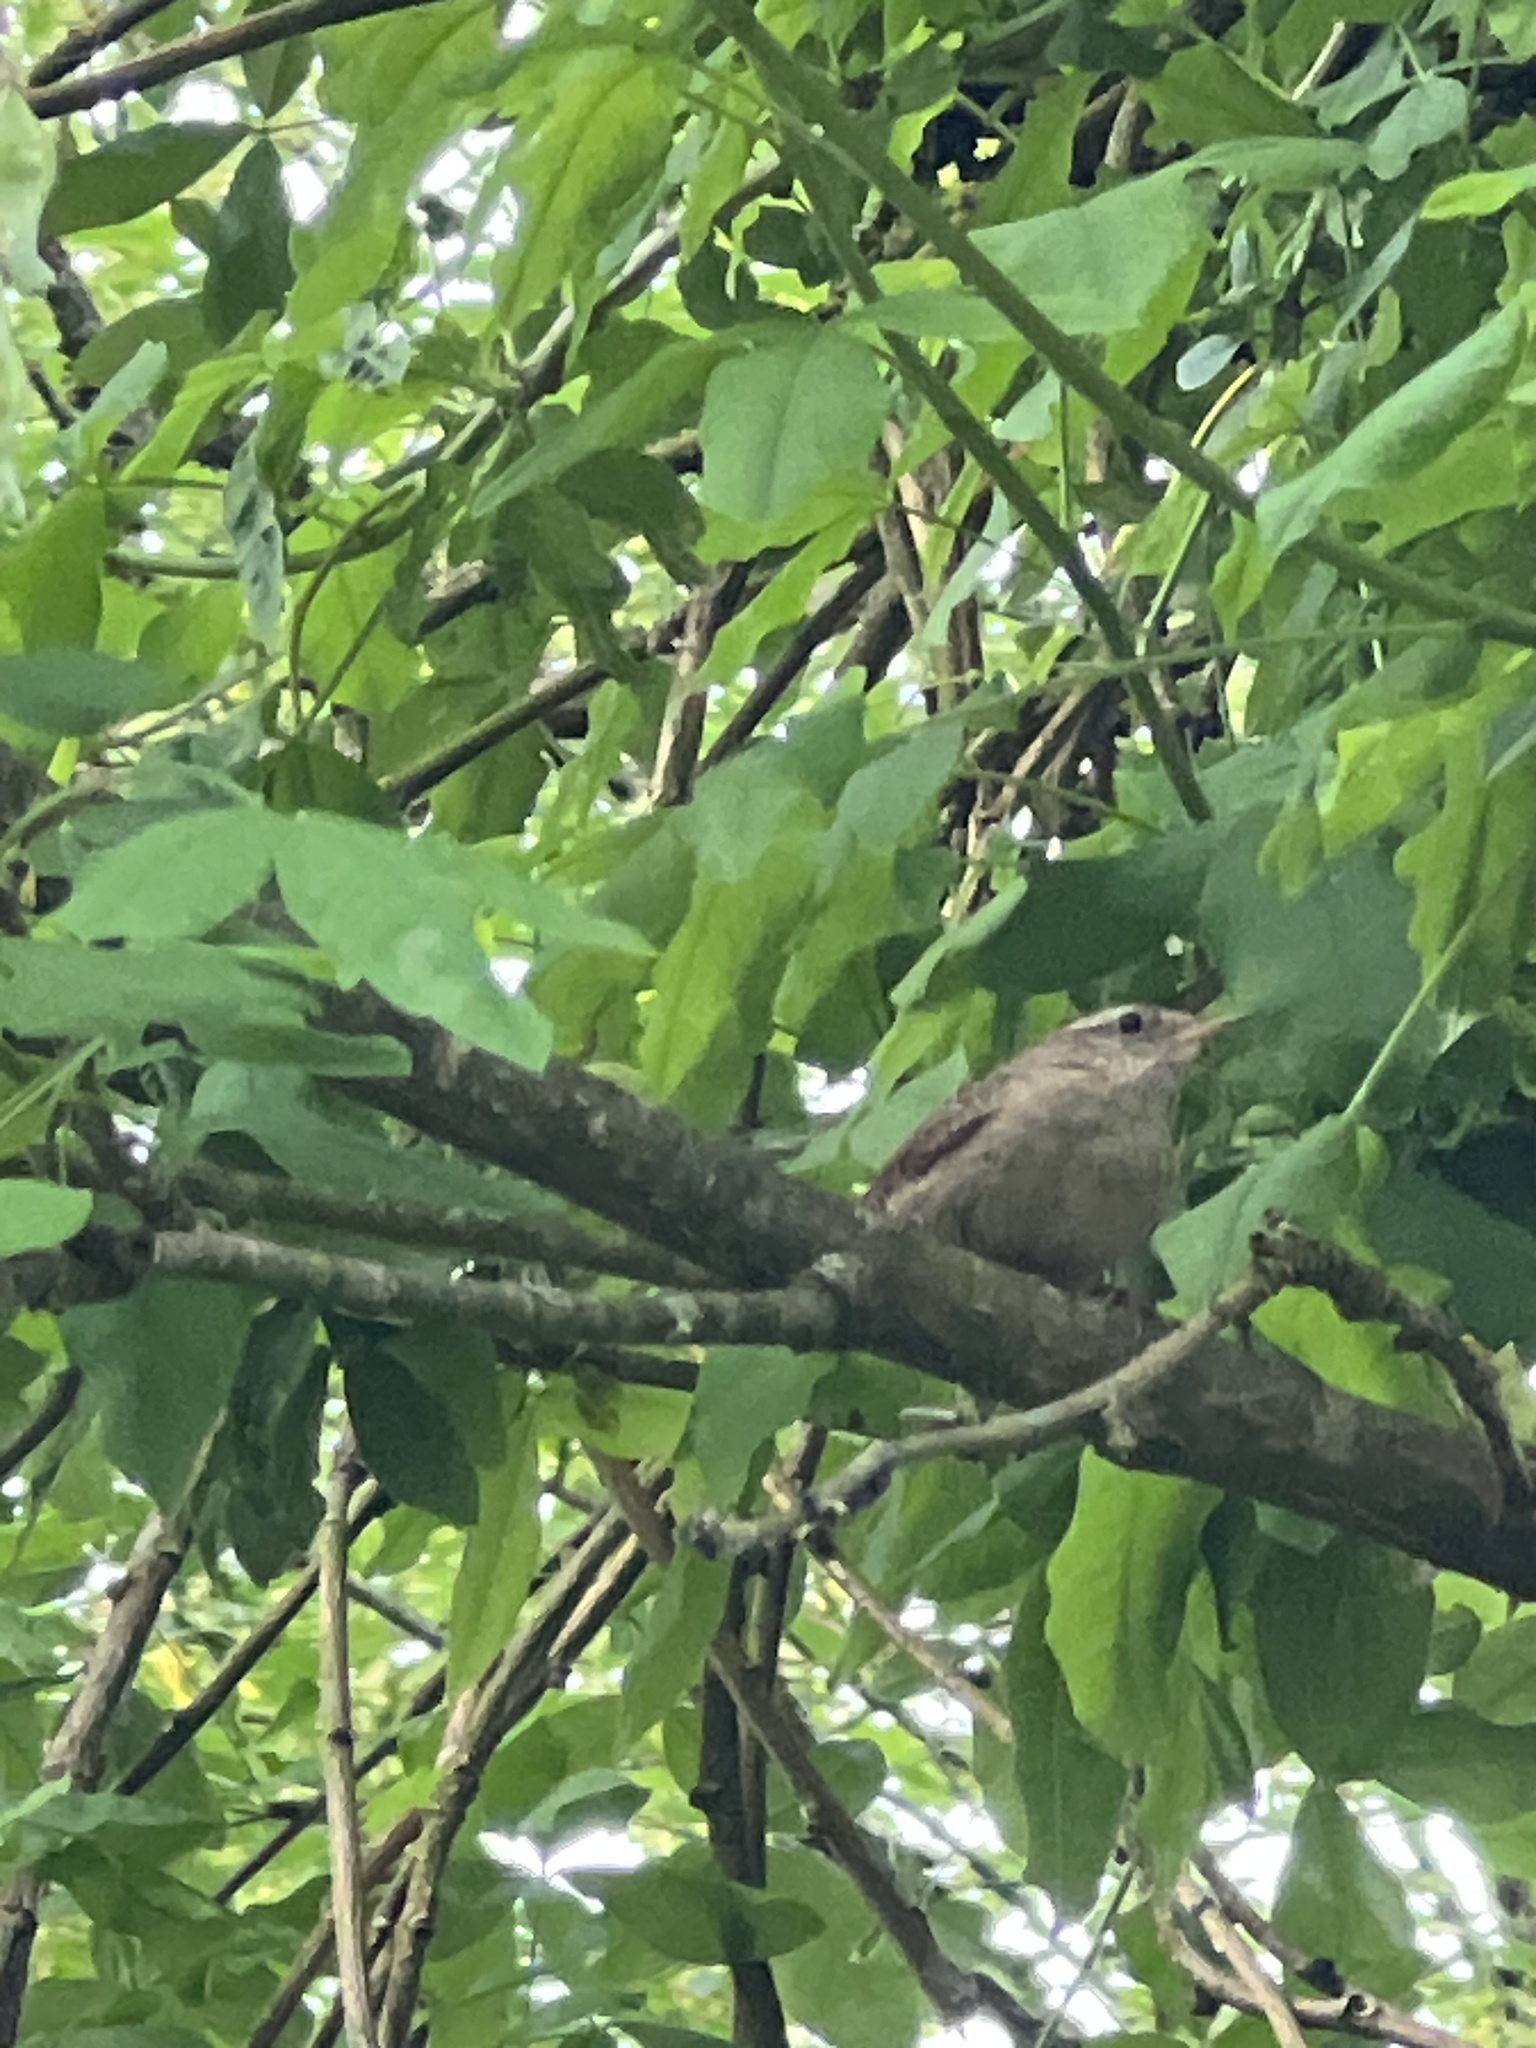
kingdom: Animalia
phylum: Chordata
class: Aves
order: Passeriformes
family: Troglodytidae
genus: Troglodytes
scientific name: Troglodytes troglodytes
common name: Eurasian wren
